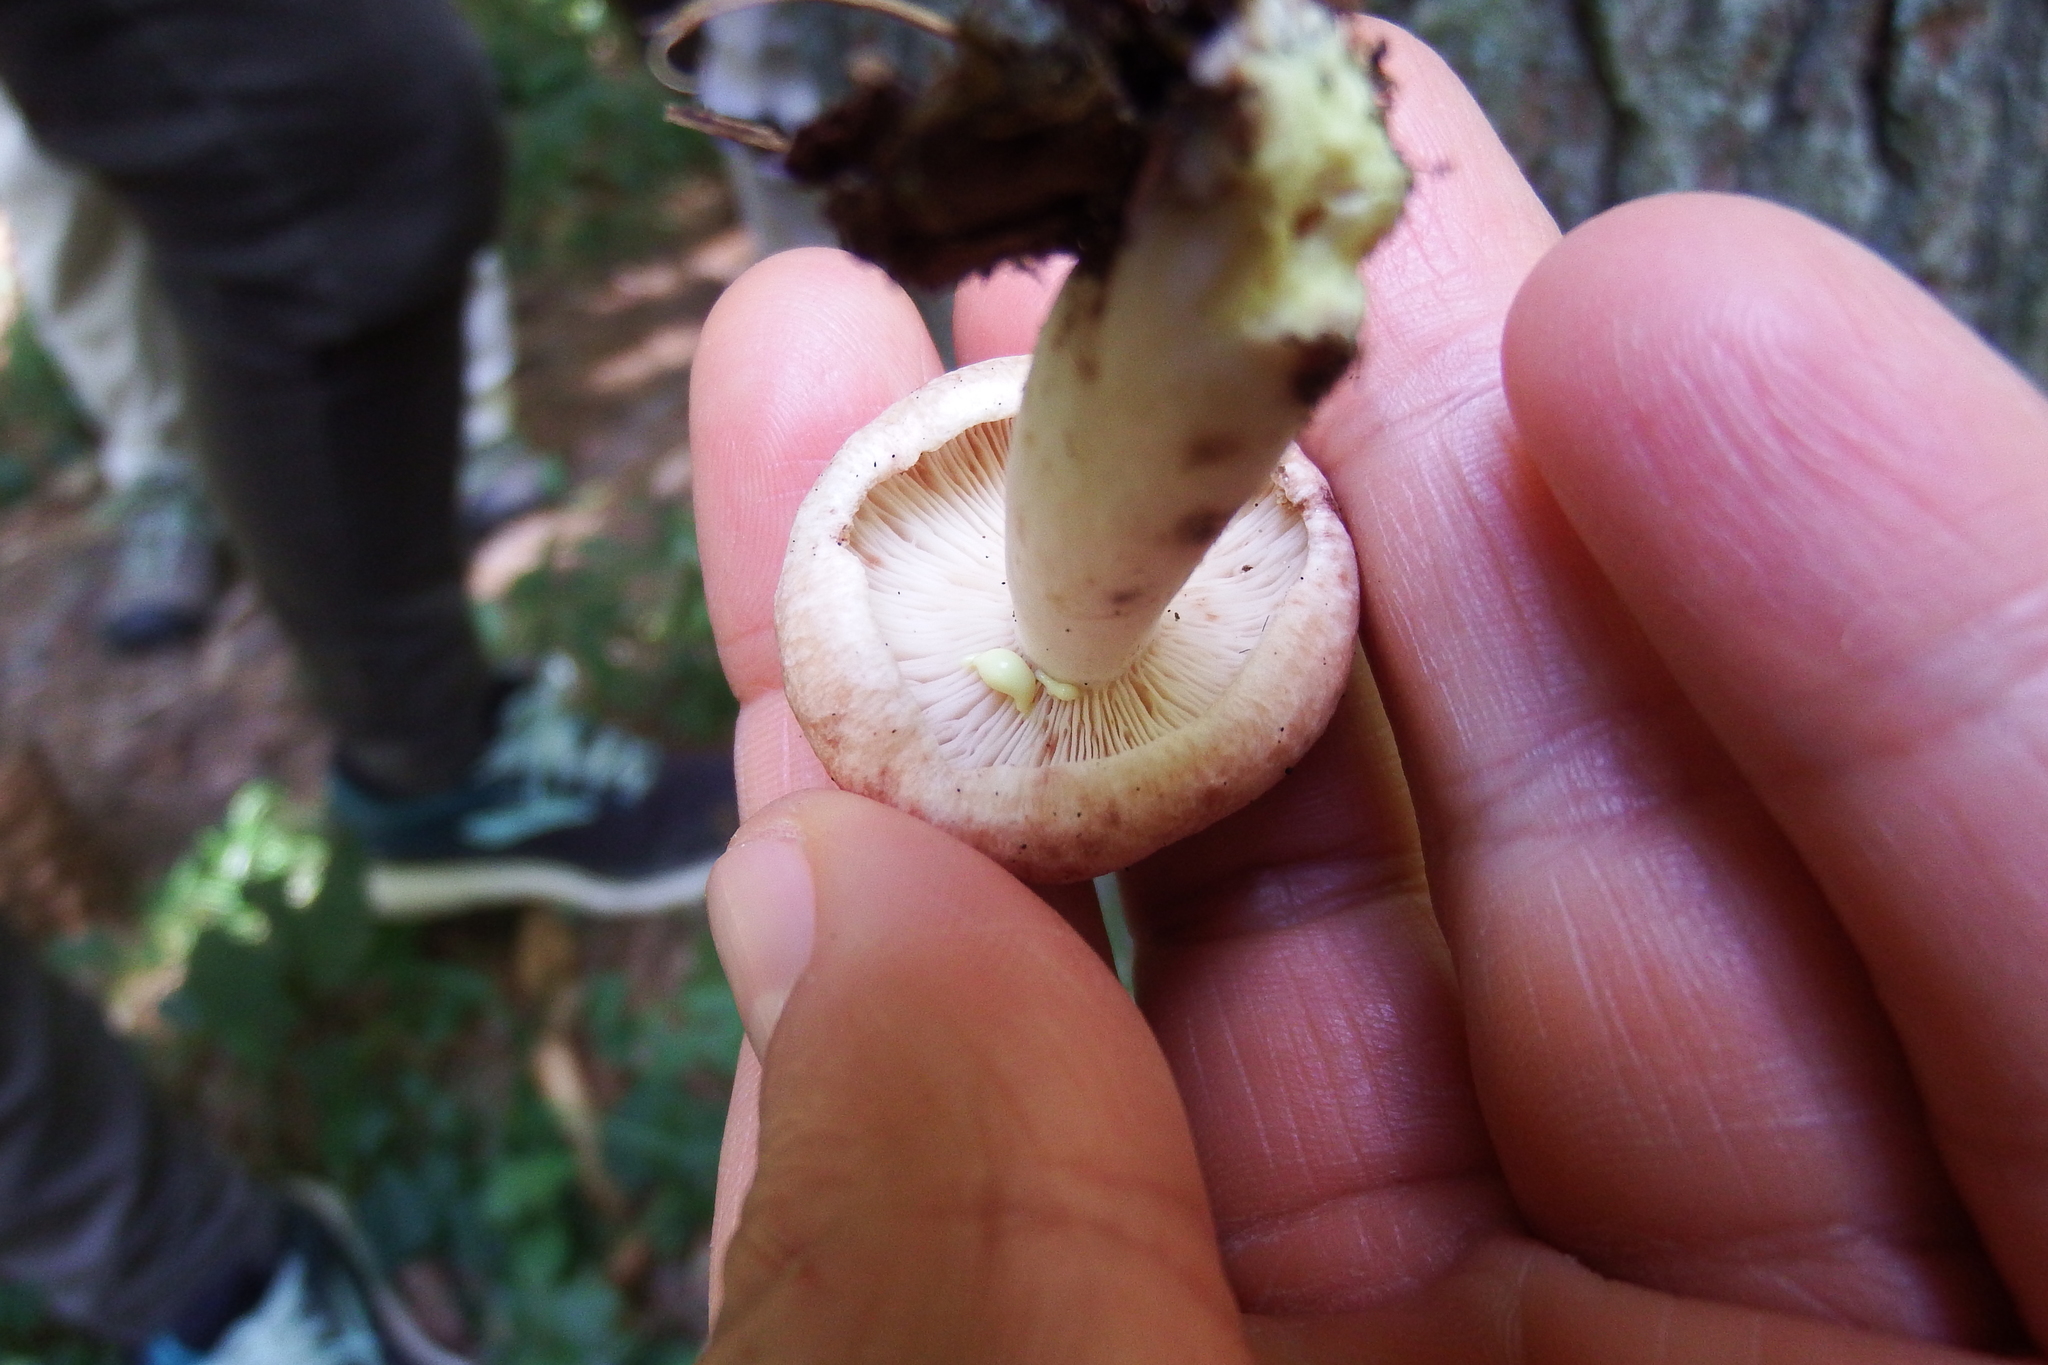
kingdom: Fungi
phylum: Basidiomycota
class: Agaricomycetes
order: Russulales
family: Russulaceae
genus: Lactarius
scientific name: Lactarius vinaceorufescens
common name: Yellow-latex milkcap
